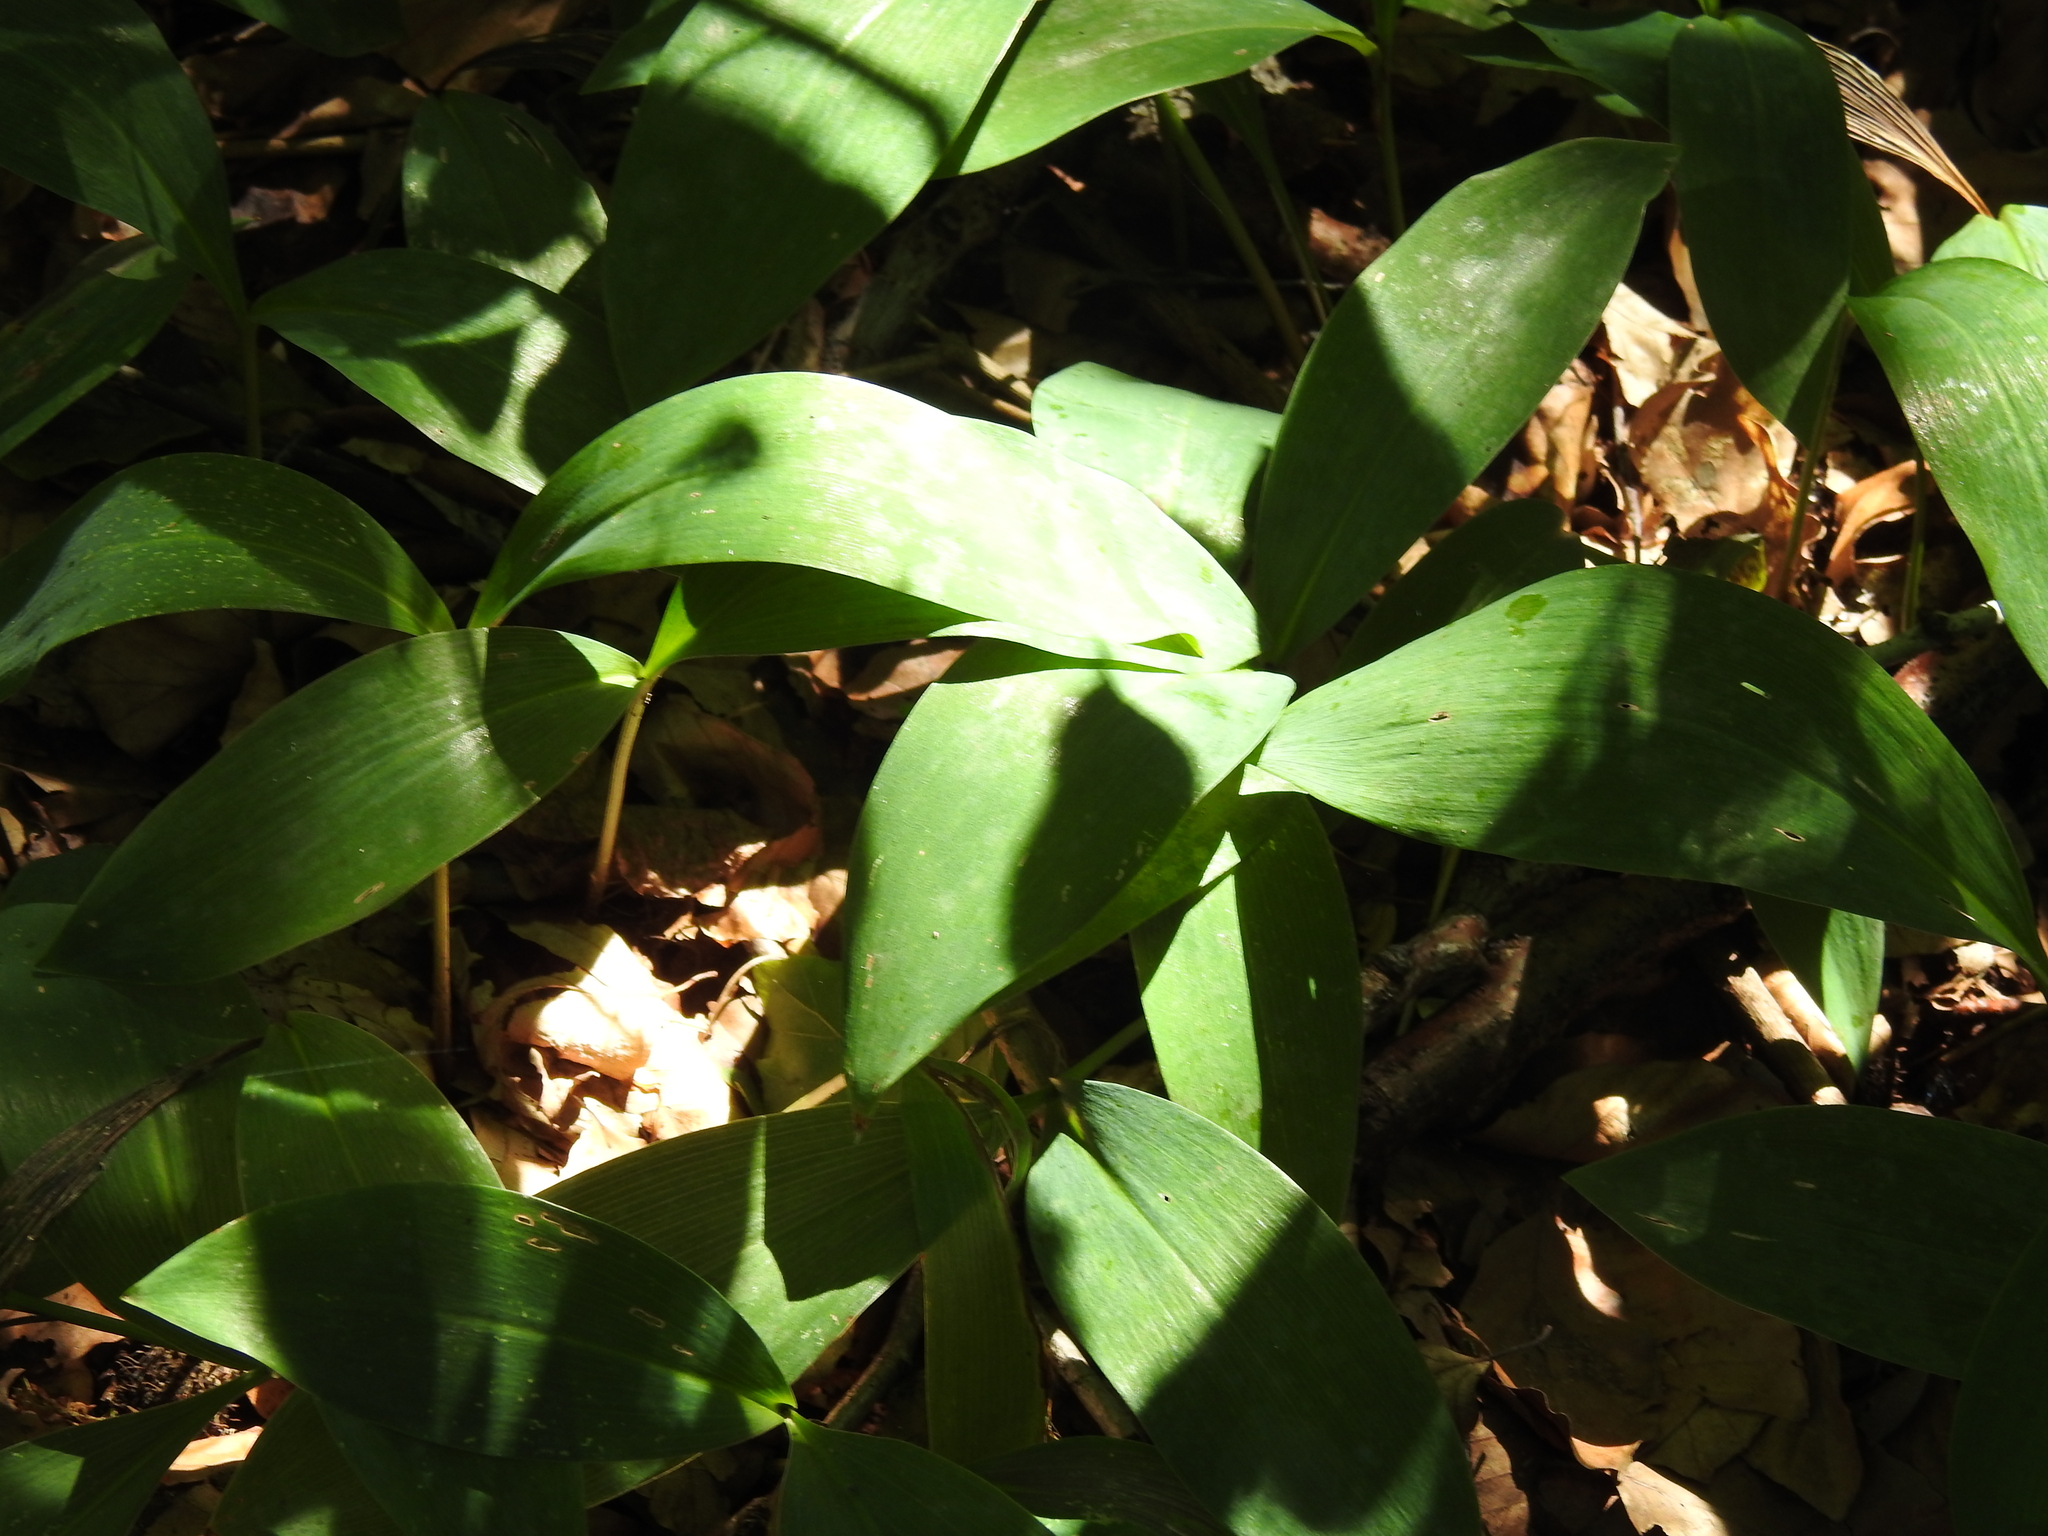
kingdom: Plantae
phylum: Tracheophyta
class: Liliopsida
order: Asparagales
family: Asparagaceae
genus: Convallaria
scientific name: Convallaria majalis
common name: Lily-of-the-valley
